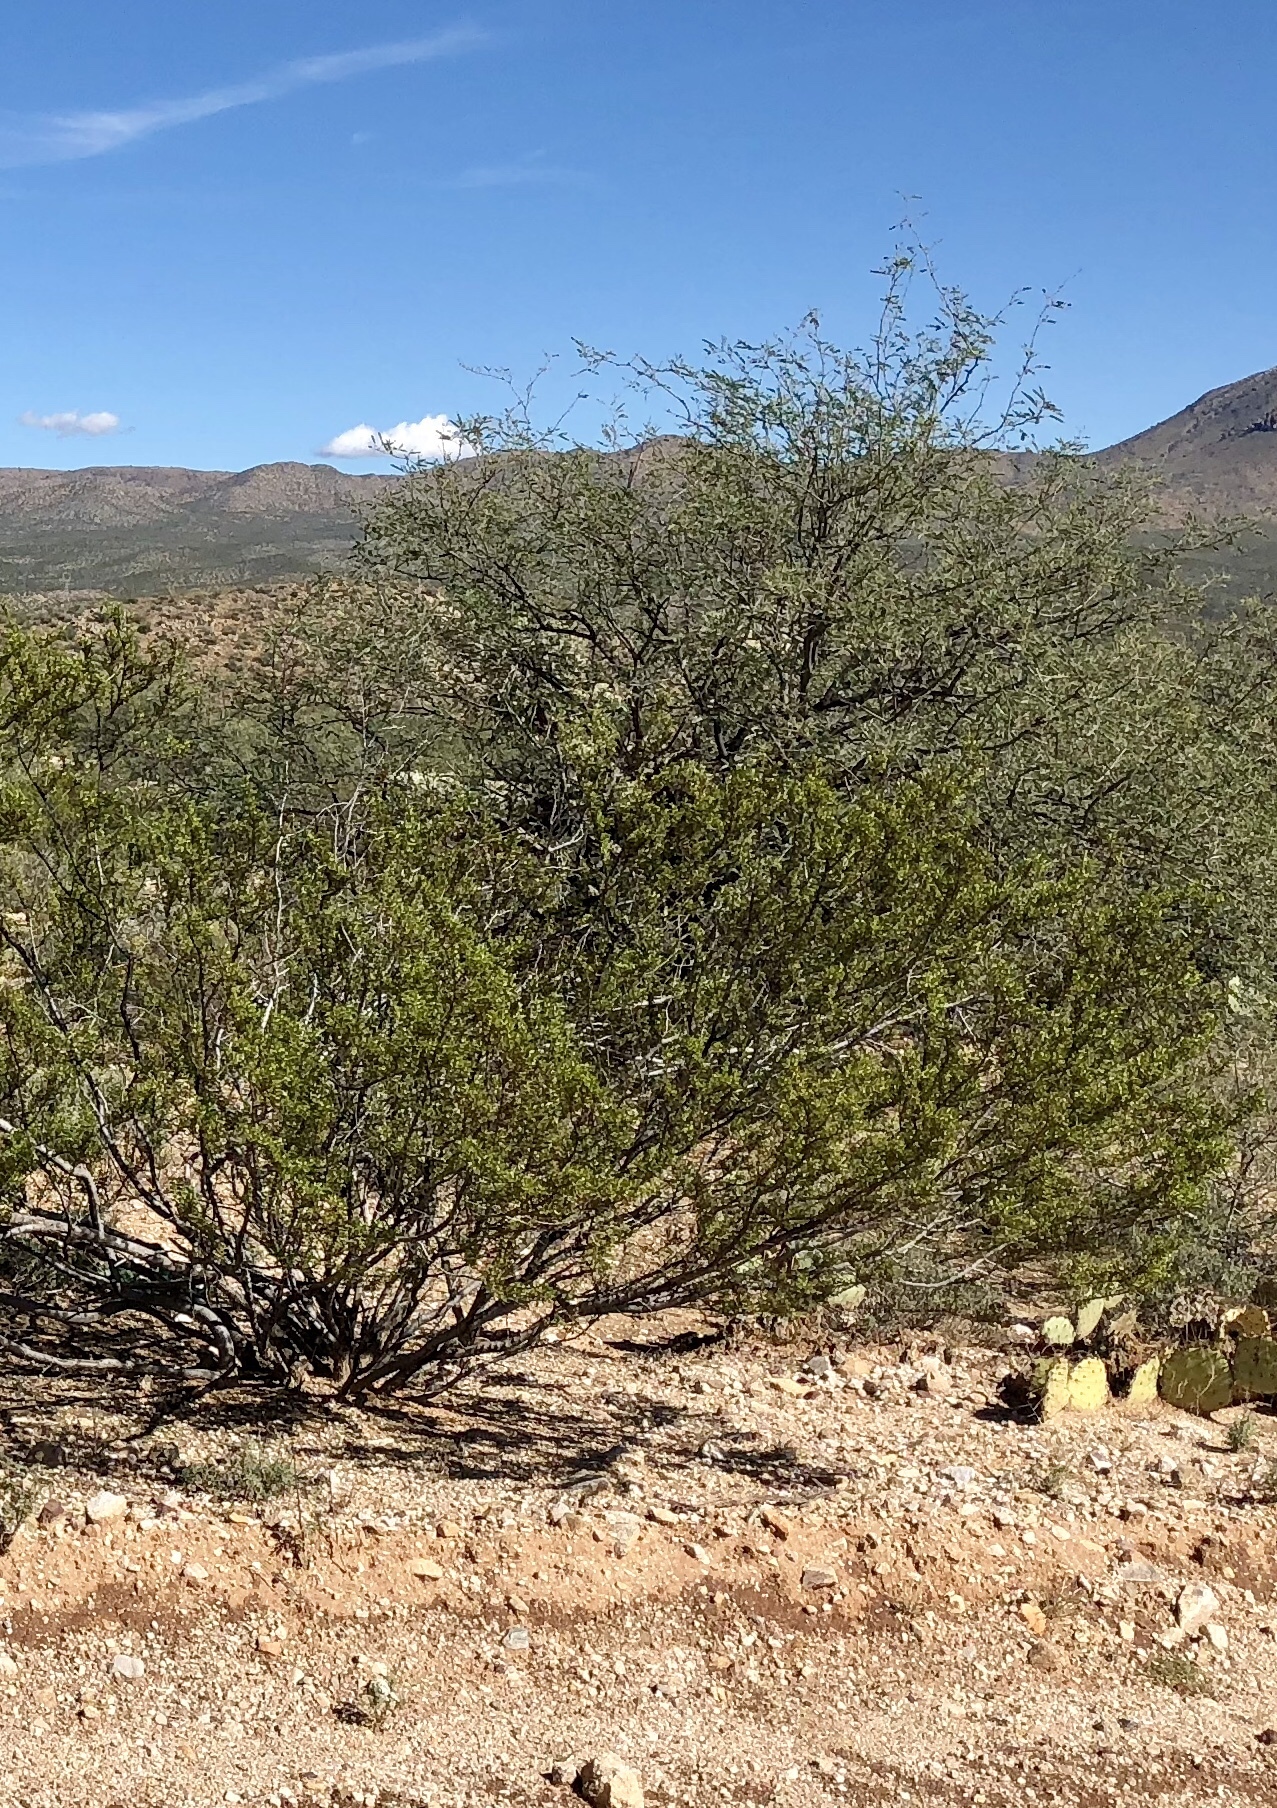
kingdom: Plantae
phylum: Tracheophyta
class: Magnoliopsida
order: Zygophyllales
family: Zygophyllaceae
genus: Larrea
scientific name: Larrea tridentata
